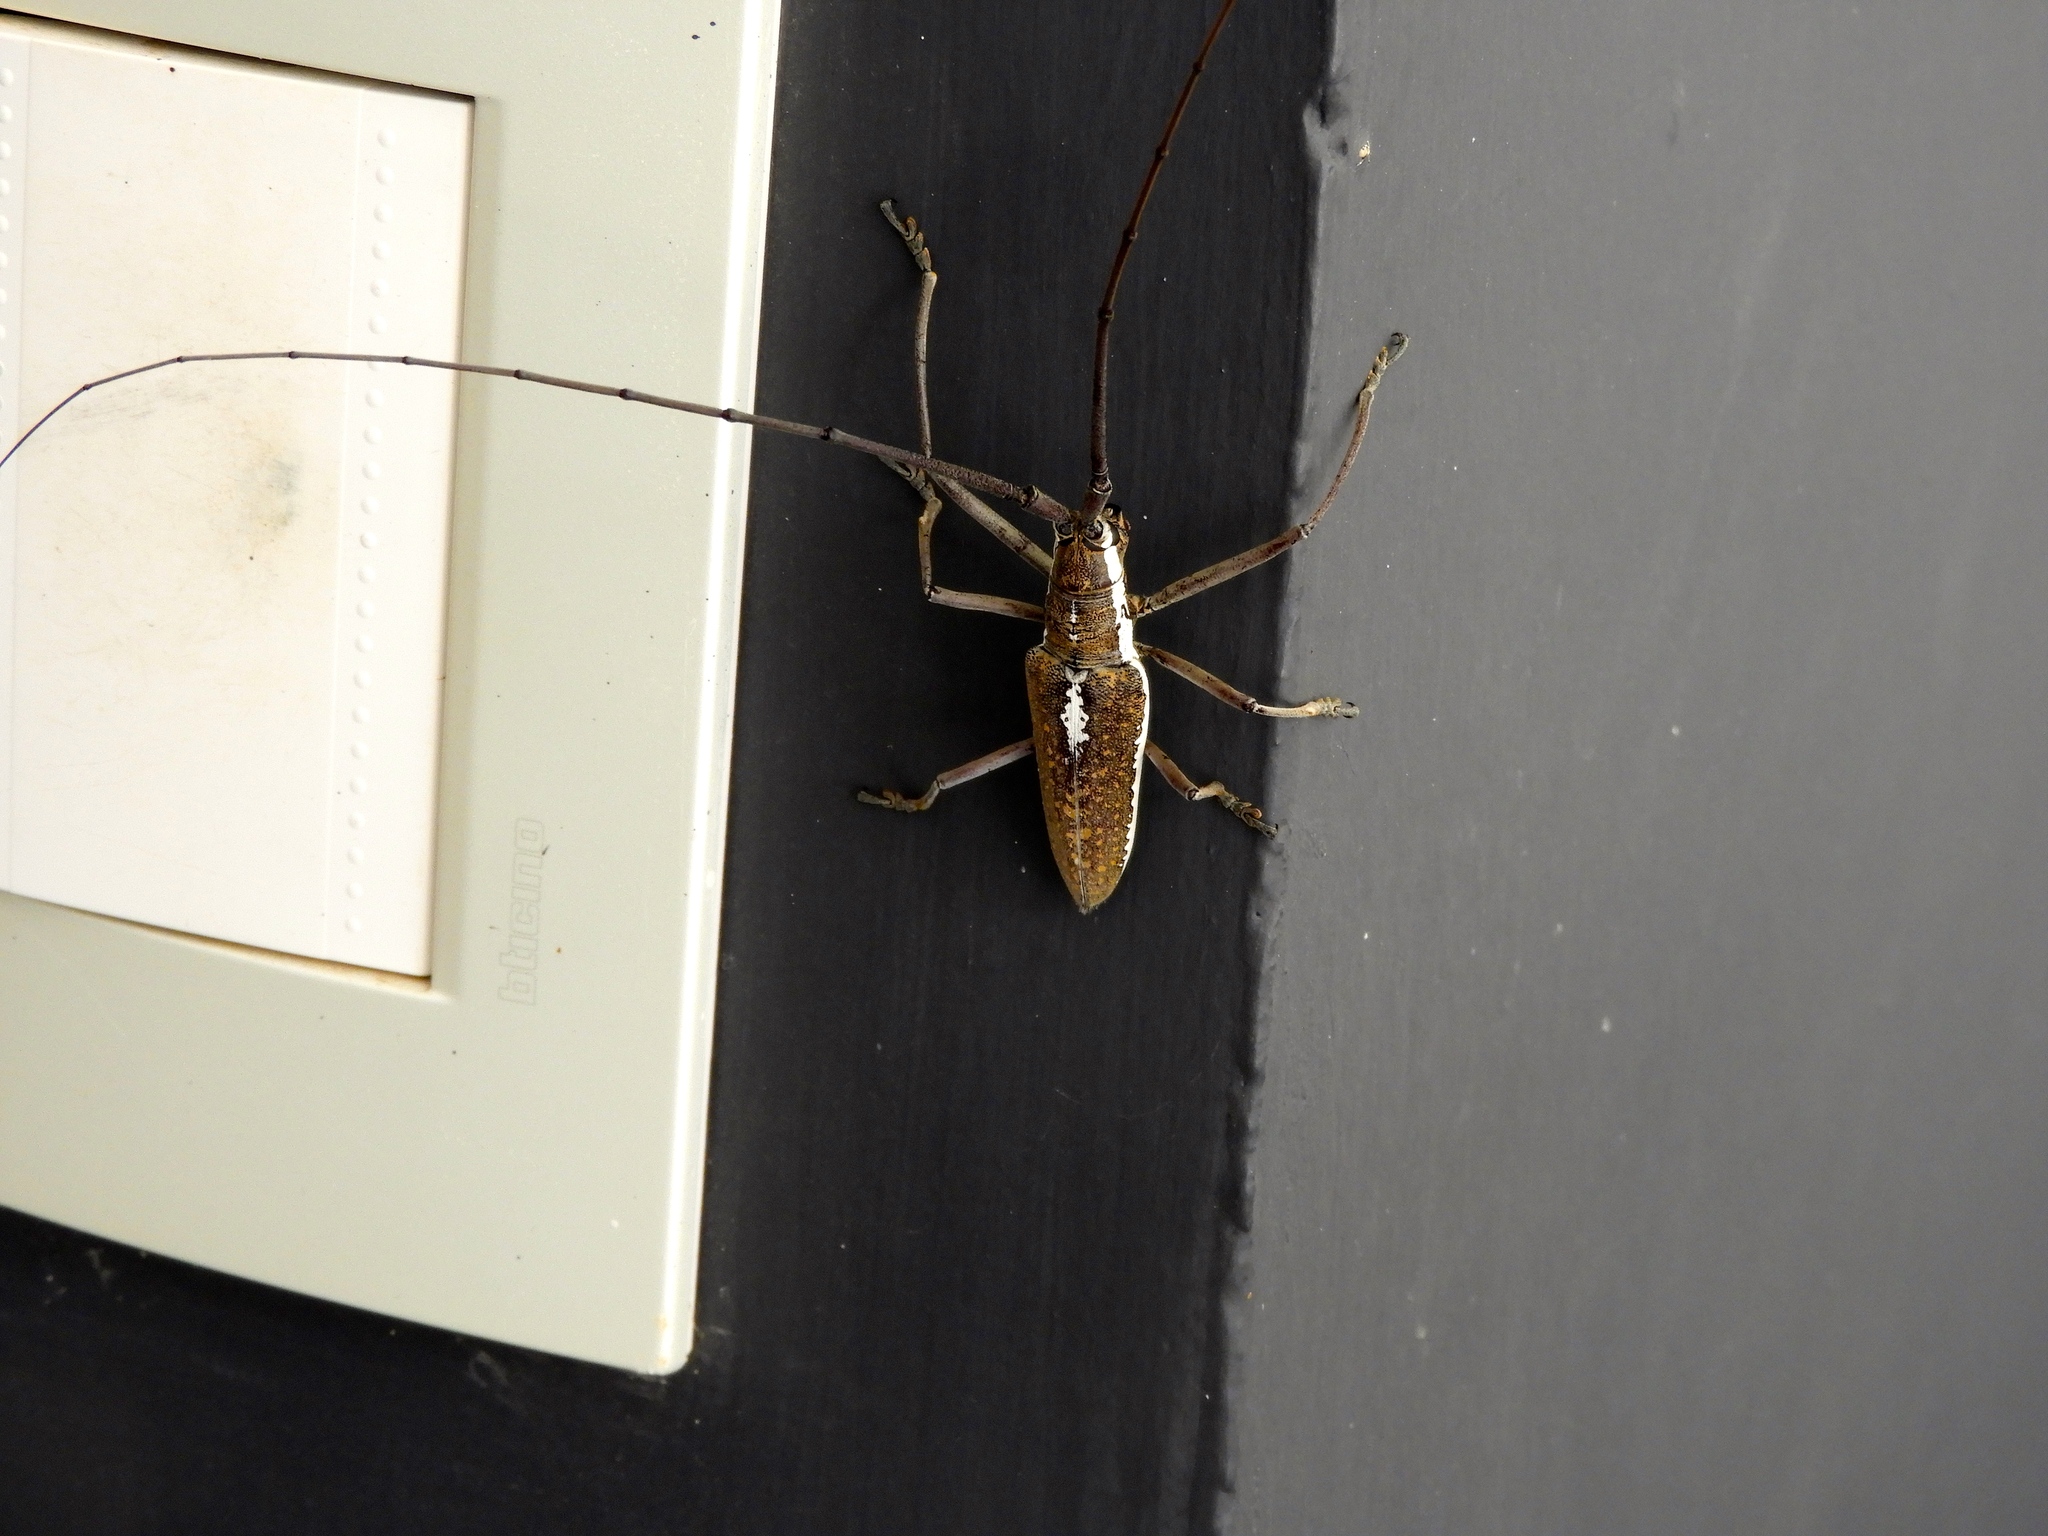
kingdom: Animalia
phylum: Arthropoda
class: Insecta
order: Coleoptera
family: Cerambycidae
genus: Neoptychodes
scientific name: Neoptychodes trilineatus
